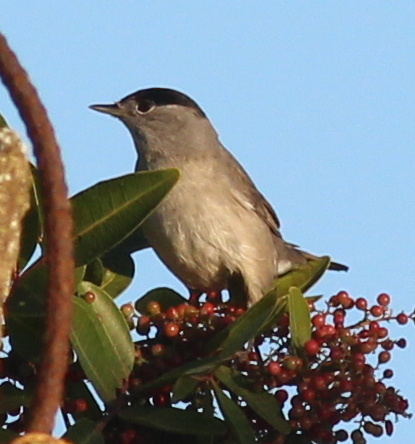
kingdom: Animalia
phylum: Chordata
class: Aves
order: Passeriformes
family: Sylviidae
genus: Sylvia
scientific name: Sylvia atricapilla
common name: Eurasian blackcap
